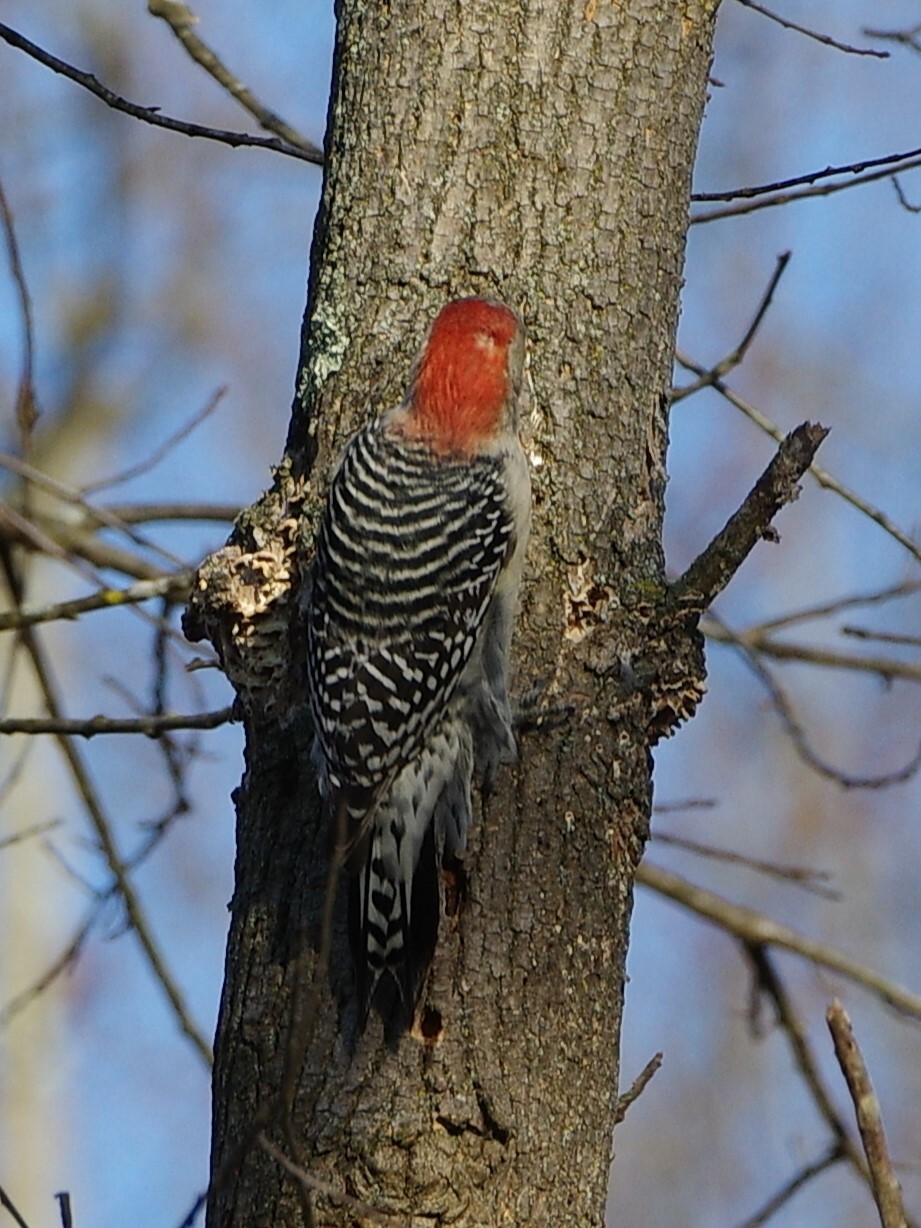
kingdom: Animalia
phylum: Chordata
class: Aves
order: Piciformes
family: Picidae
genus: Melanerpes
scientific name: Melanerpes carolinus
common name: Red-bellied woodpecker
